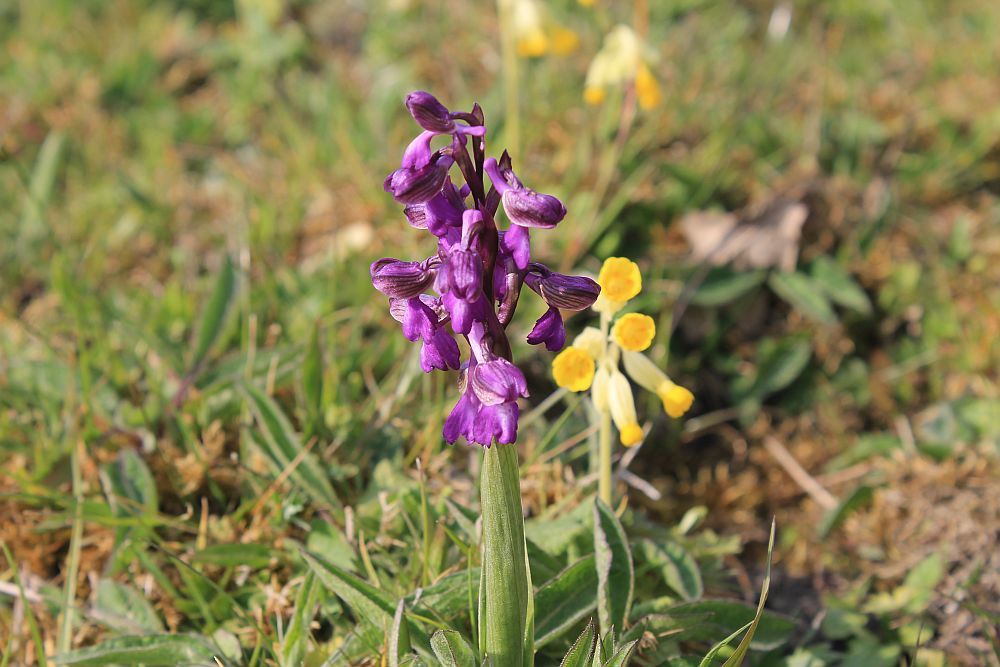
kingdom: Plantae
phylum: Tracheophyta
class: Liliopsida
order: Asparagales
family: Orchidaceae
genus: Anacamptis
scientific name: Anacamptis morio
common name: Green-winged orchid
